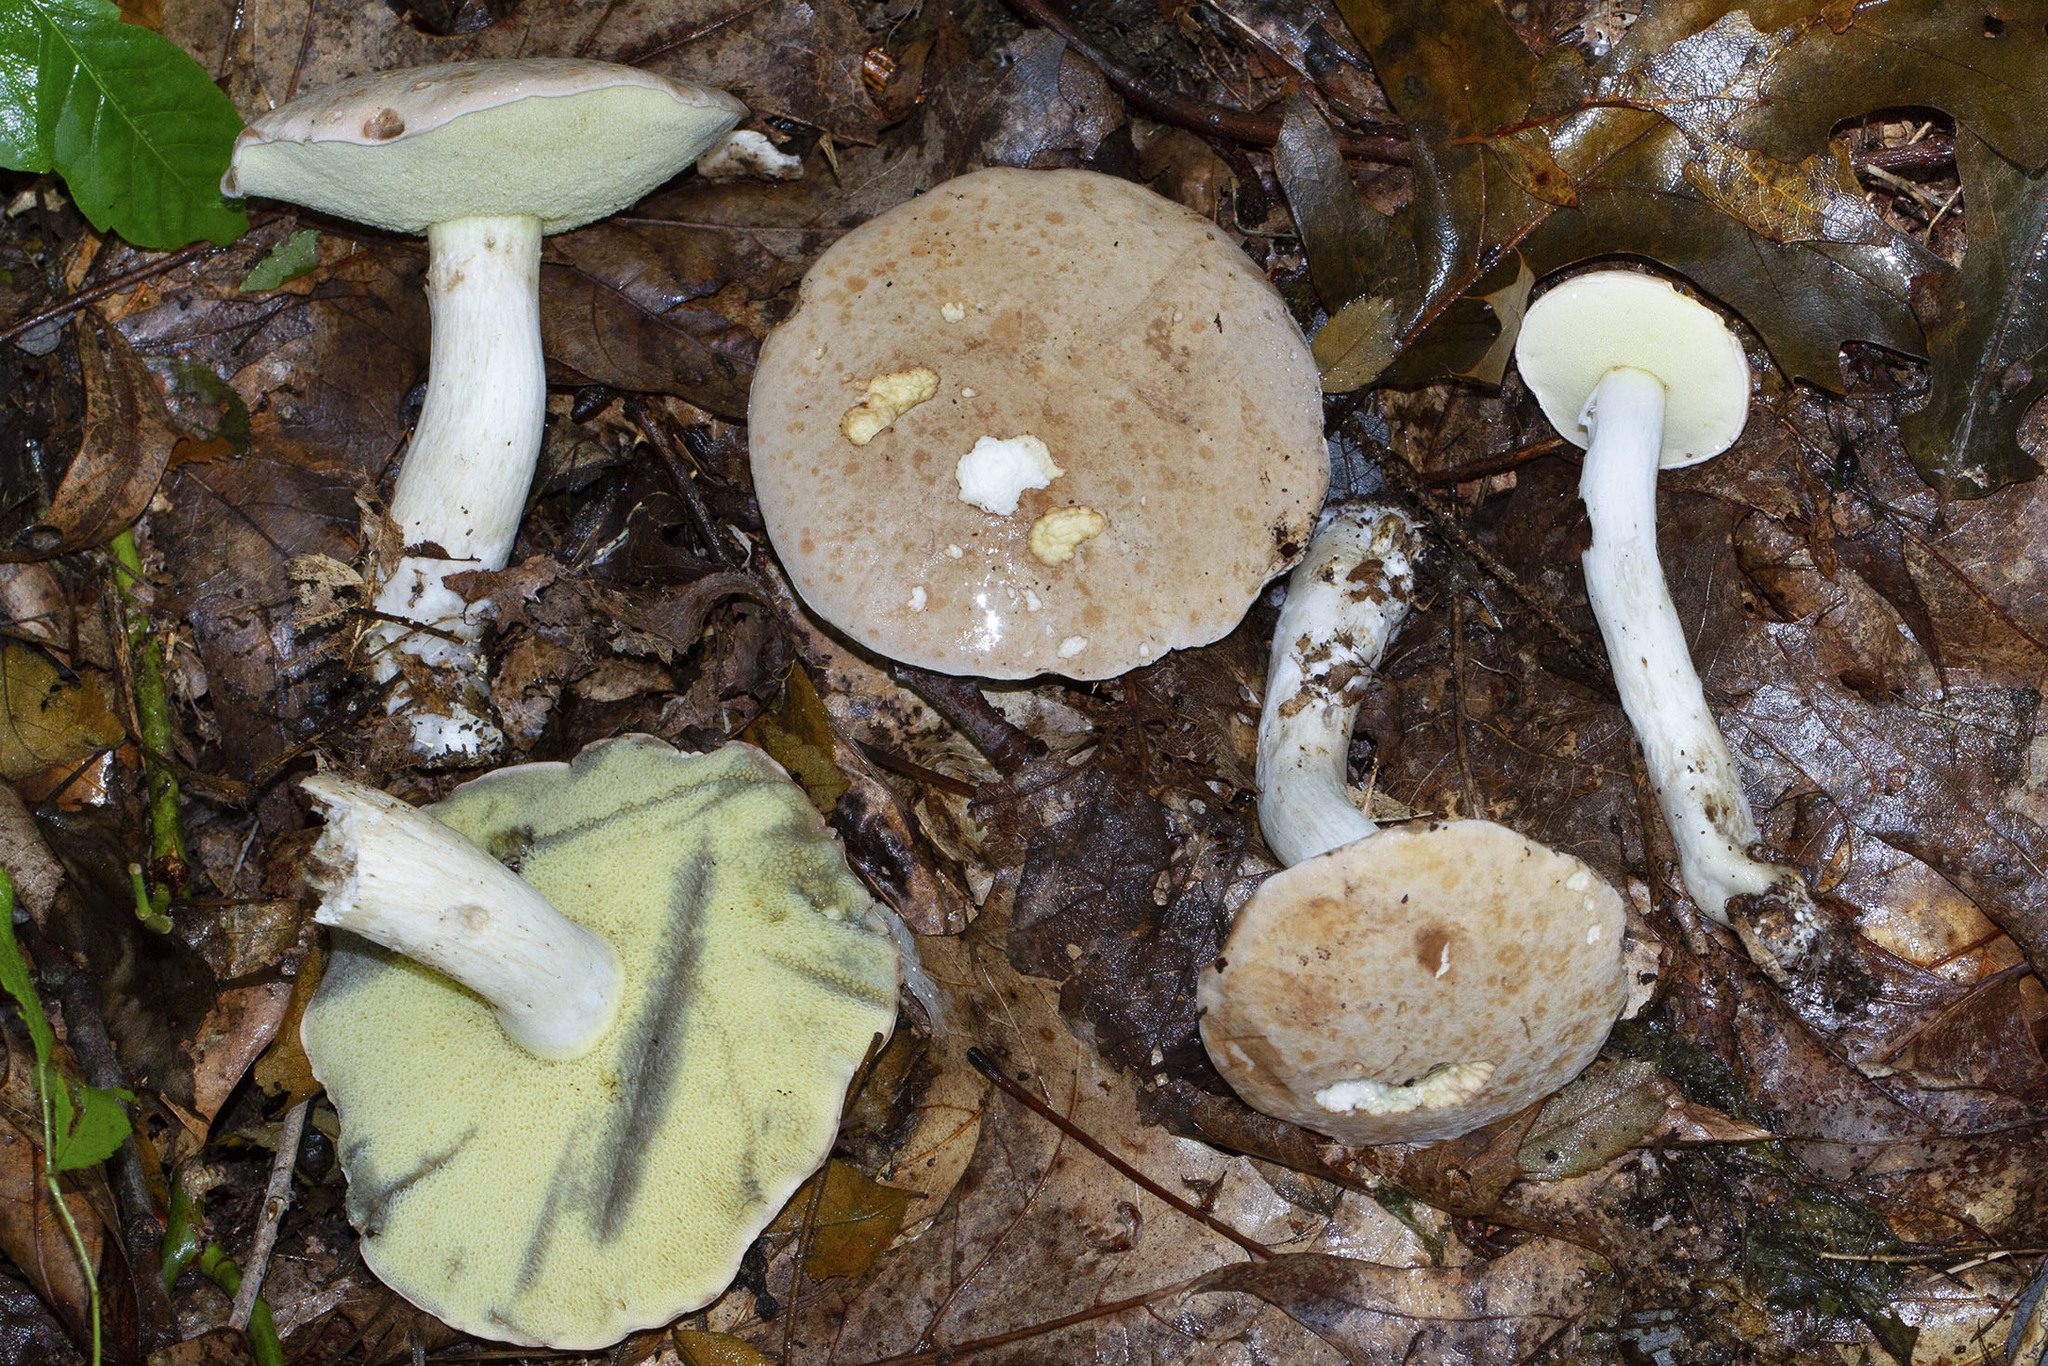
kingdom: Fungi
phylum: Basidiomycota
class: Agaricomycetes
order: Boletales
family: Boletaceae
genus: Imleria
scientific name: Imleria pallida
